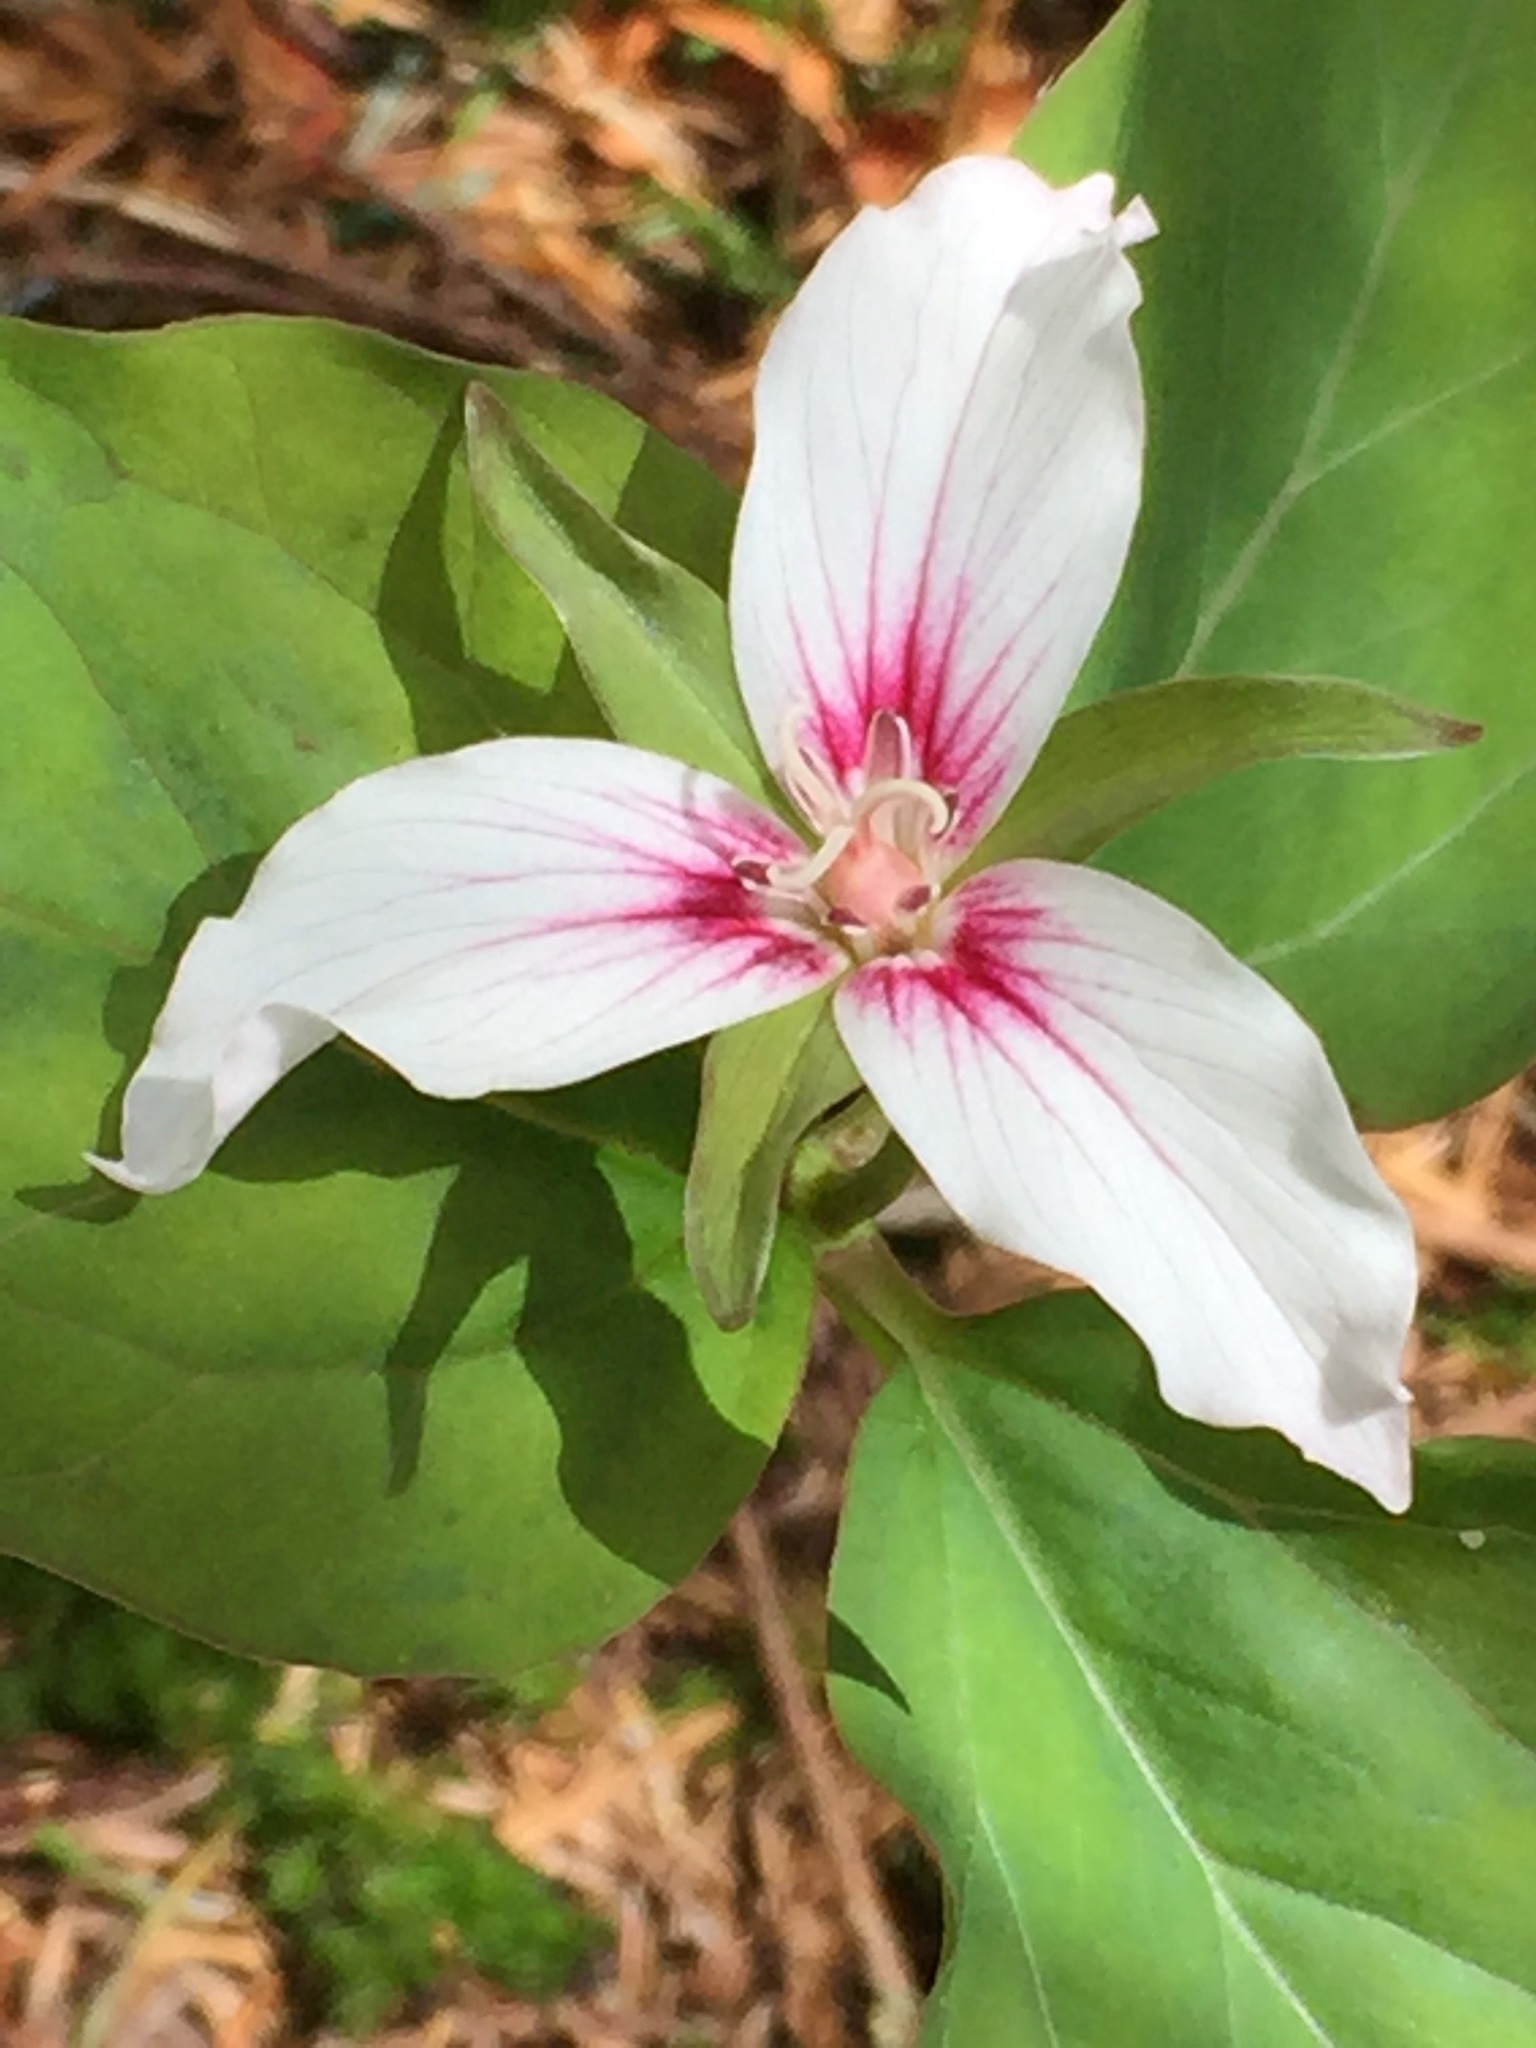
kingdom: Plantae
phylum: Tracheophyta
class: Liliopsida
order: Liliales
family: Melanthiaceae
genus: Trillium
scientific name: Trillium undulatum
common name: Paint trillium
